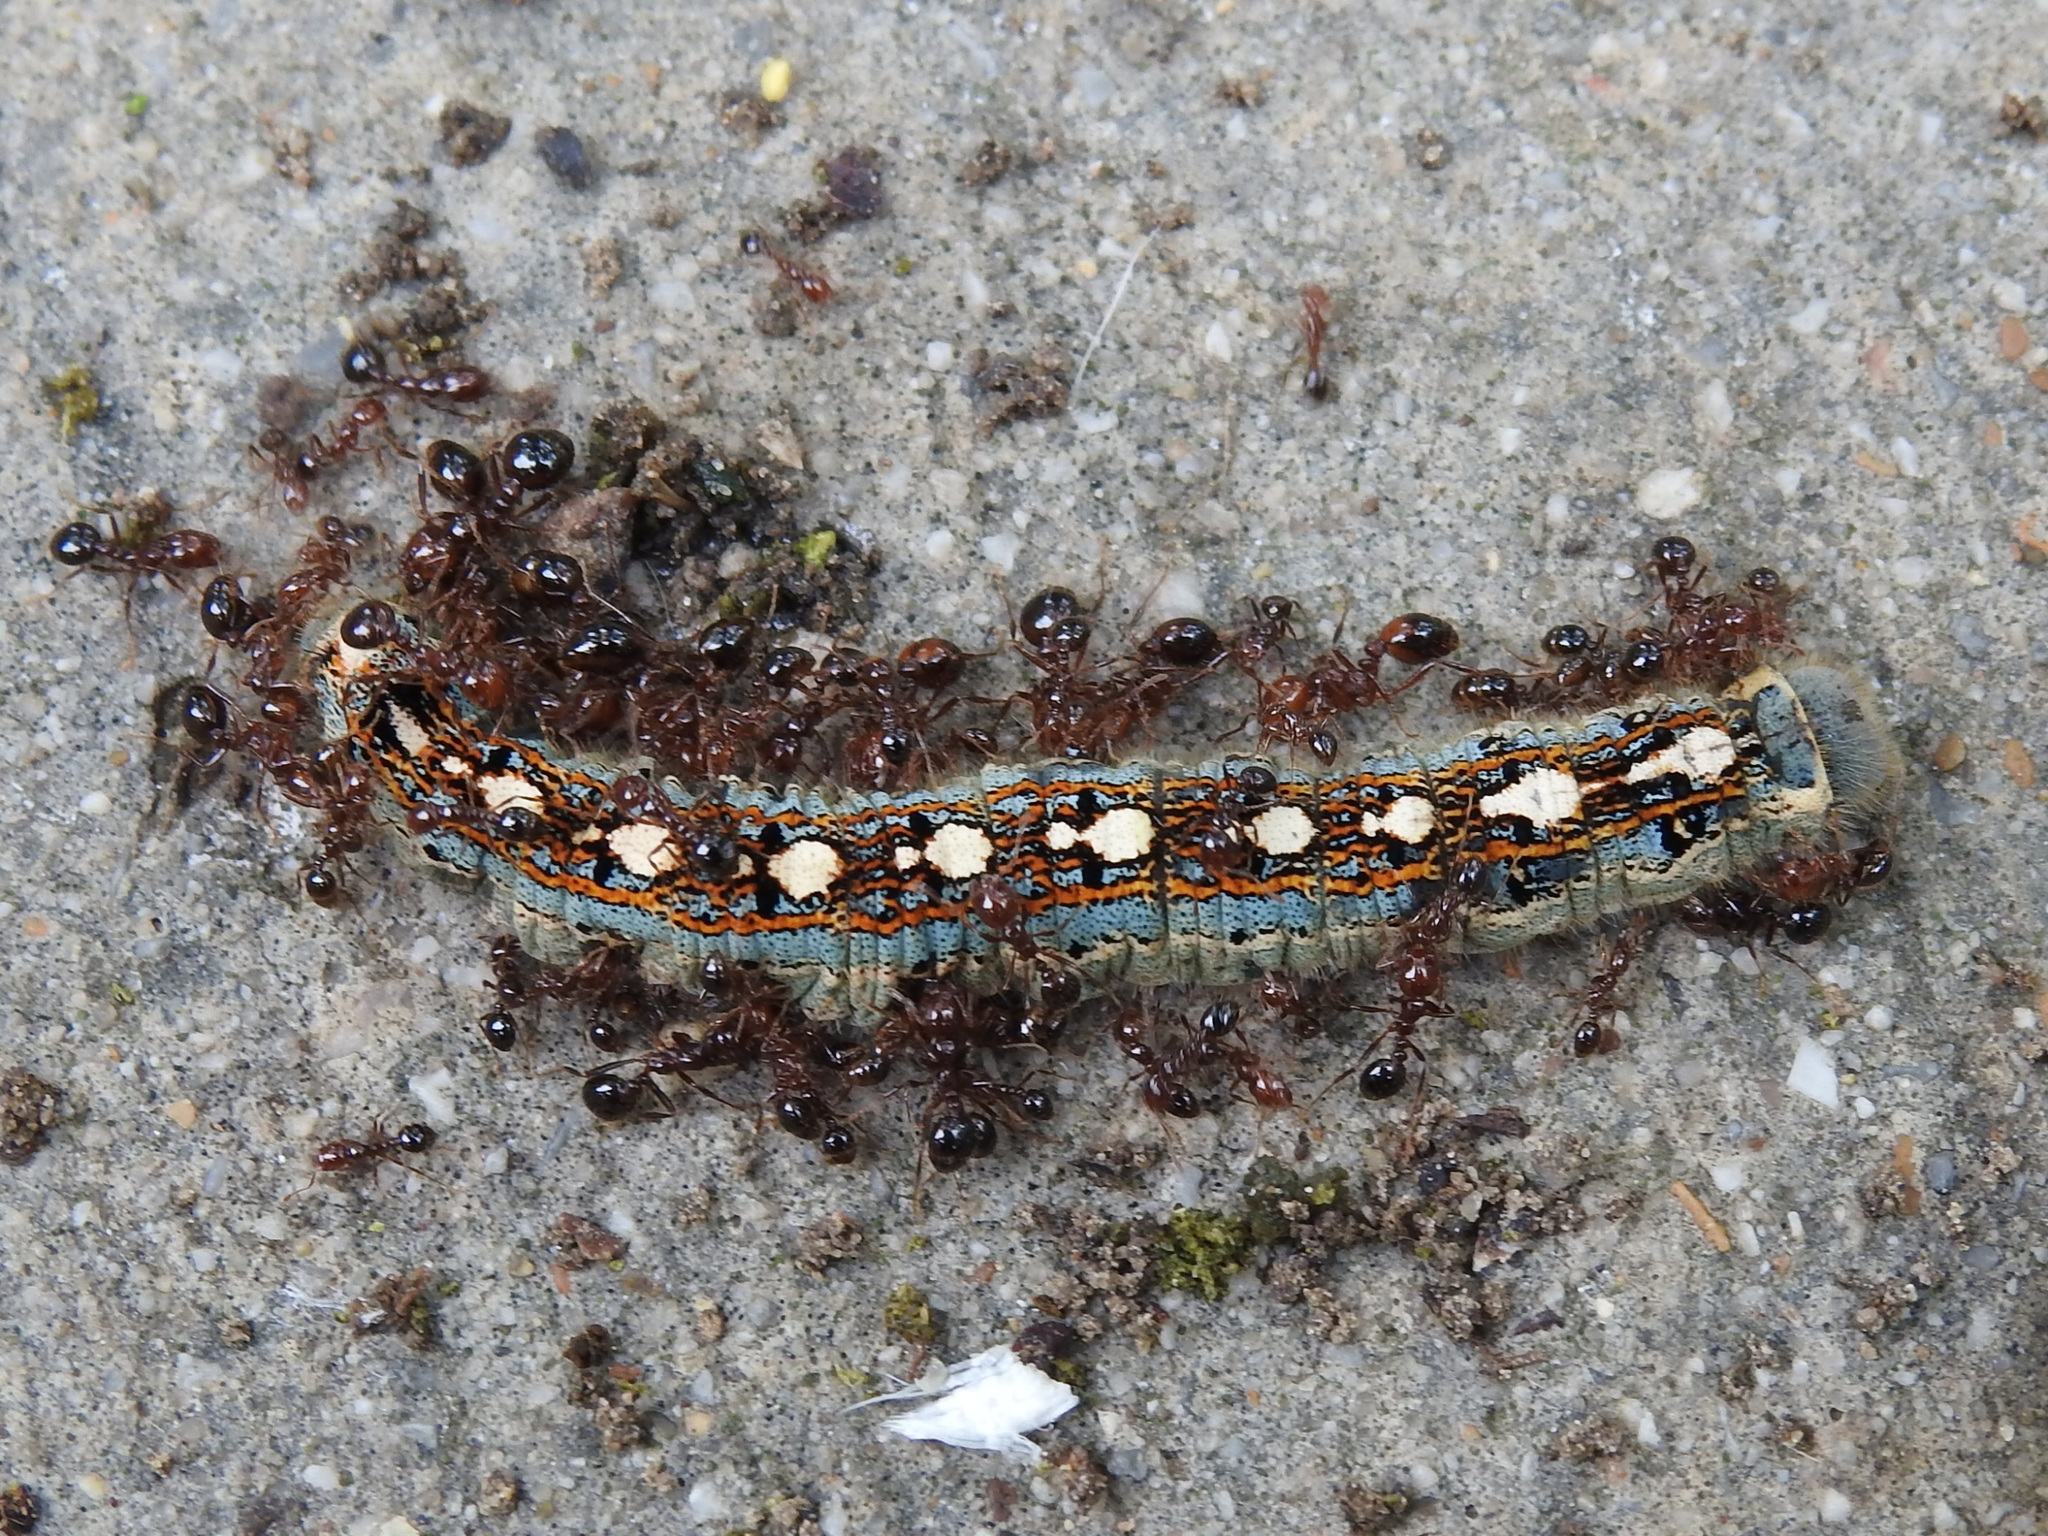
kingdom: Animalia
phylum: Arthropoda
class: Insecta
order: Lepidoptera
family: Lasiocampidae
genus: Malacosoma
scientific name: Malacosoma disstria
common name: Forest tent caterpillar
